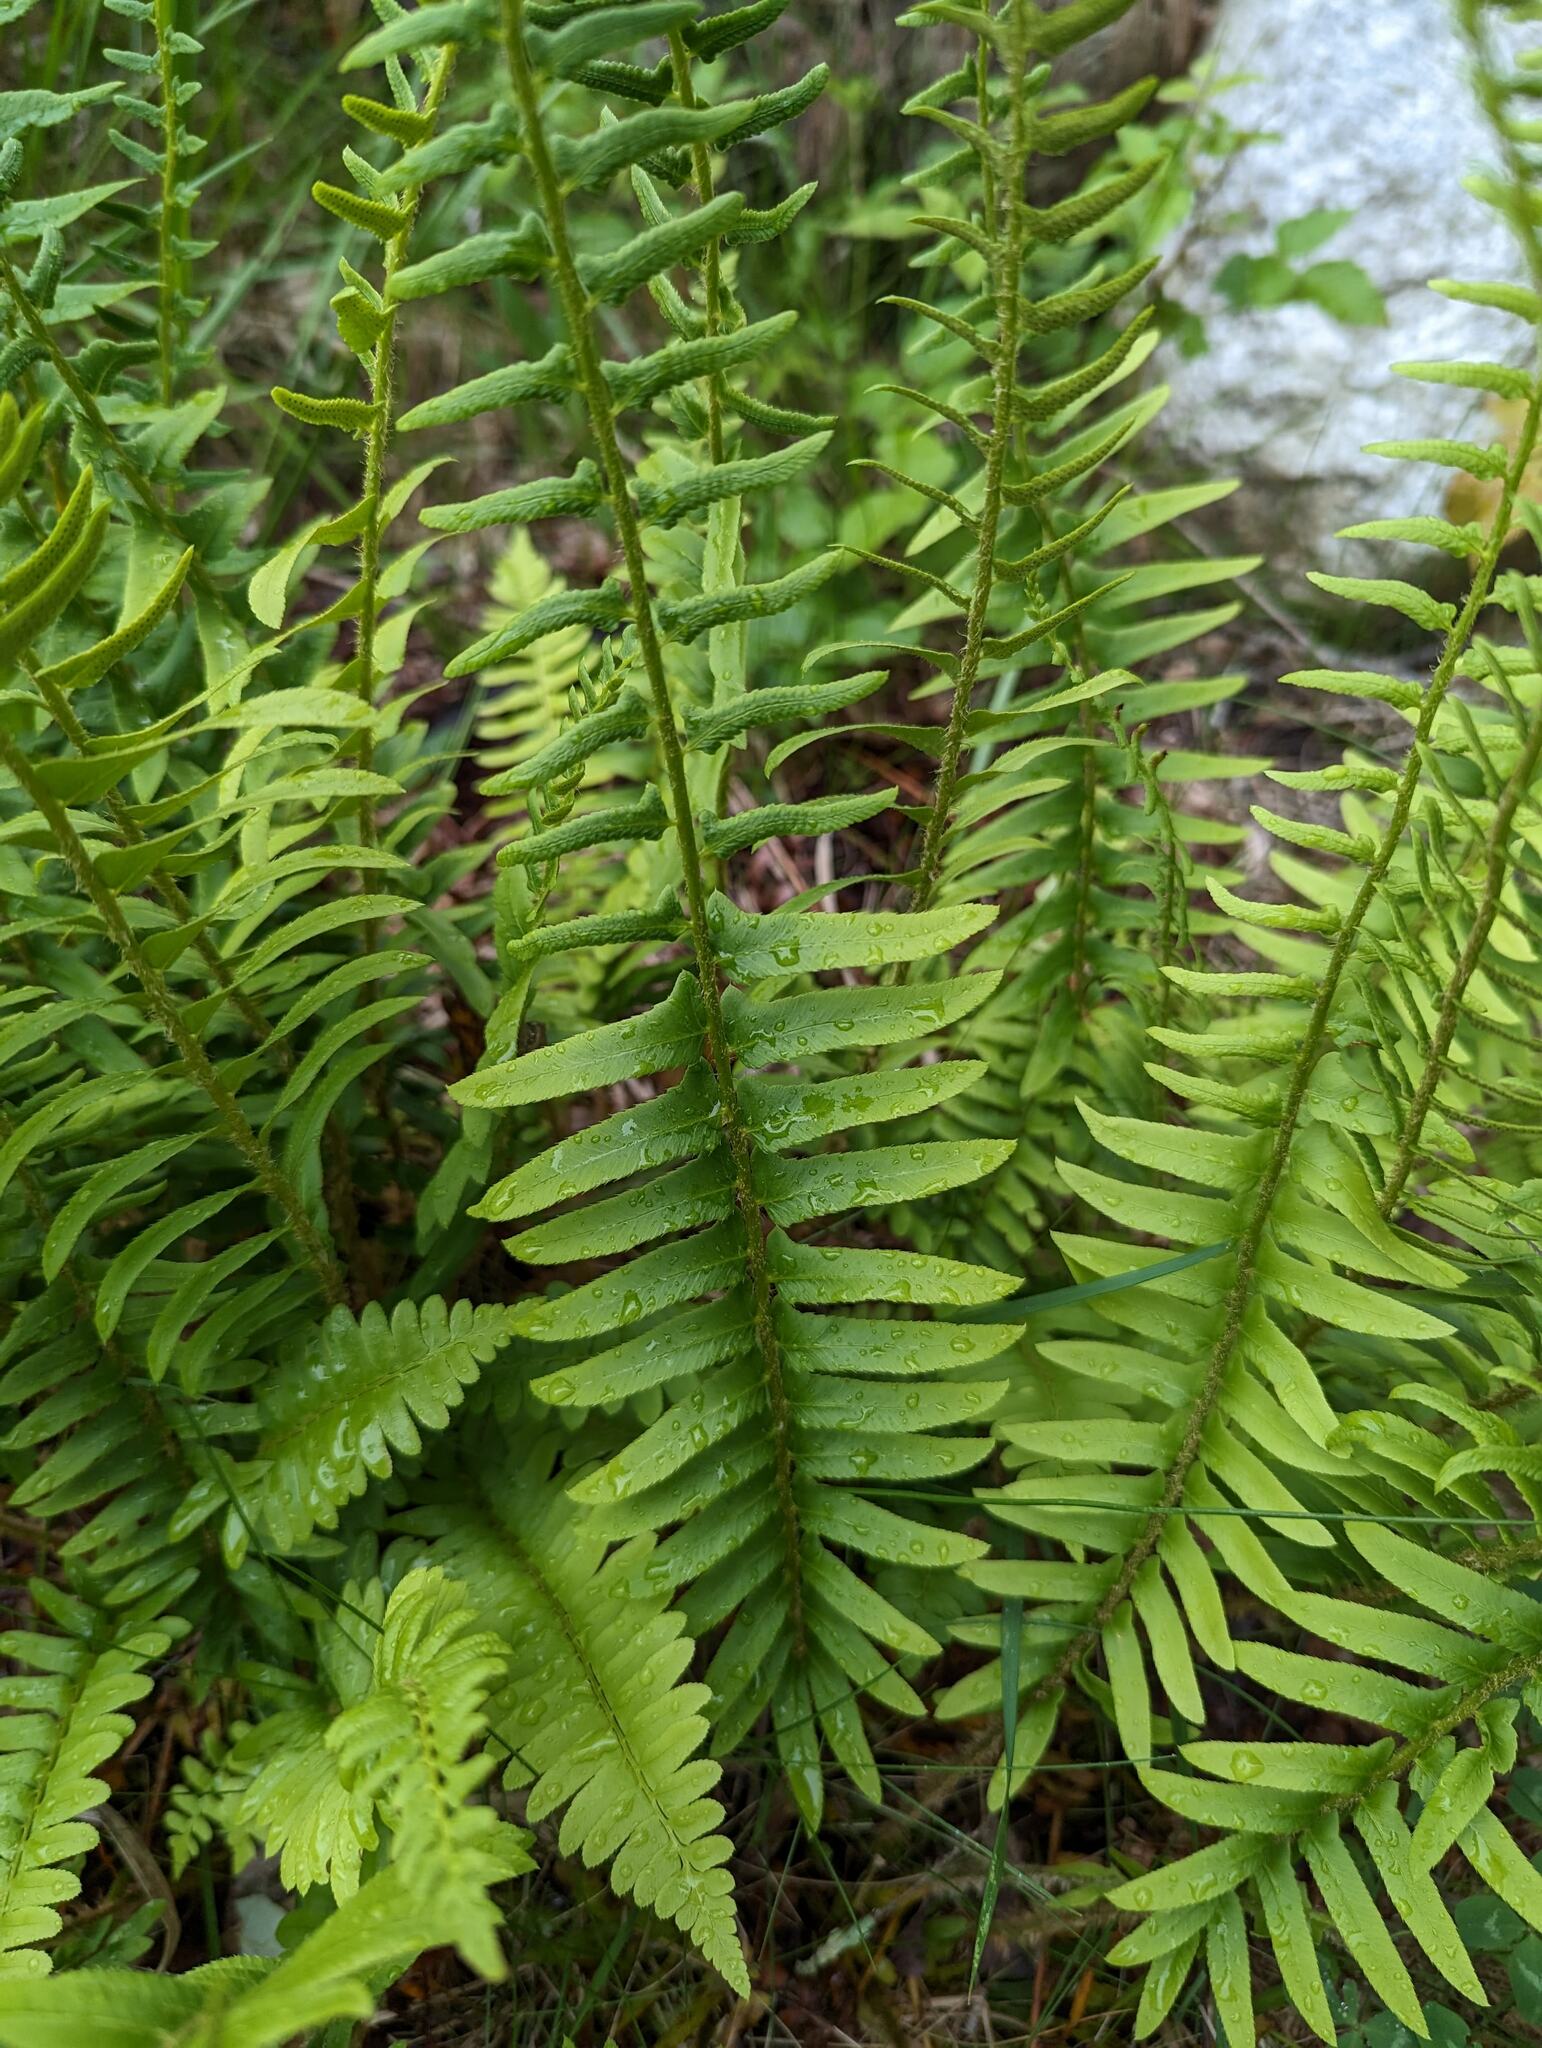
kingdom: Plantae
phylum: Tracheophyta
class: Polypodiopsida
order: Polypodiales
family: Dryopteridaceae
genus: Polystichum
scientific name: Polystichum acrostichoides
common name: Christmas fern
